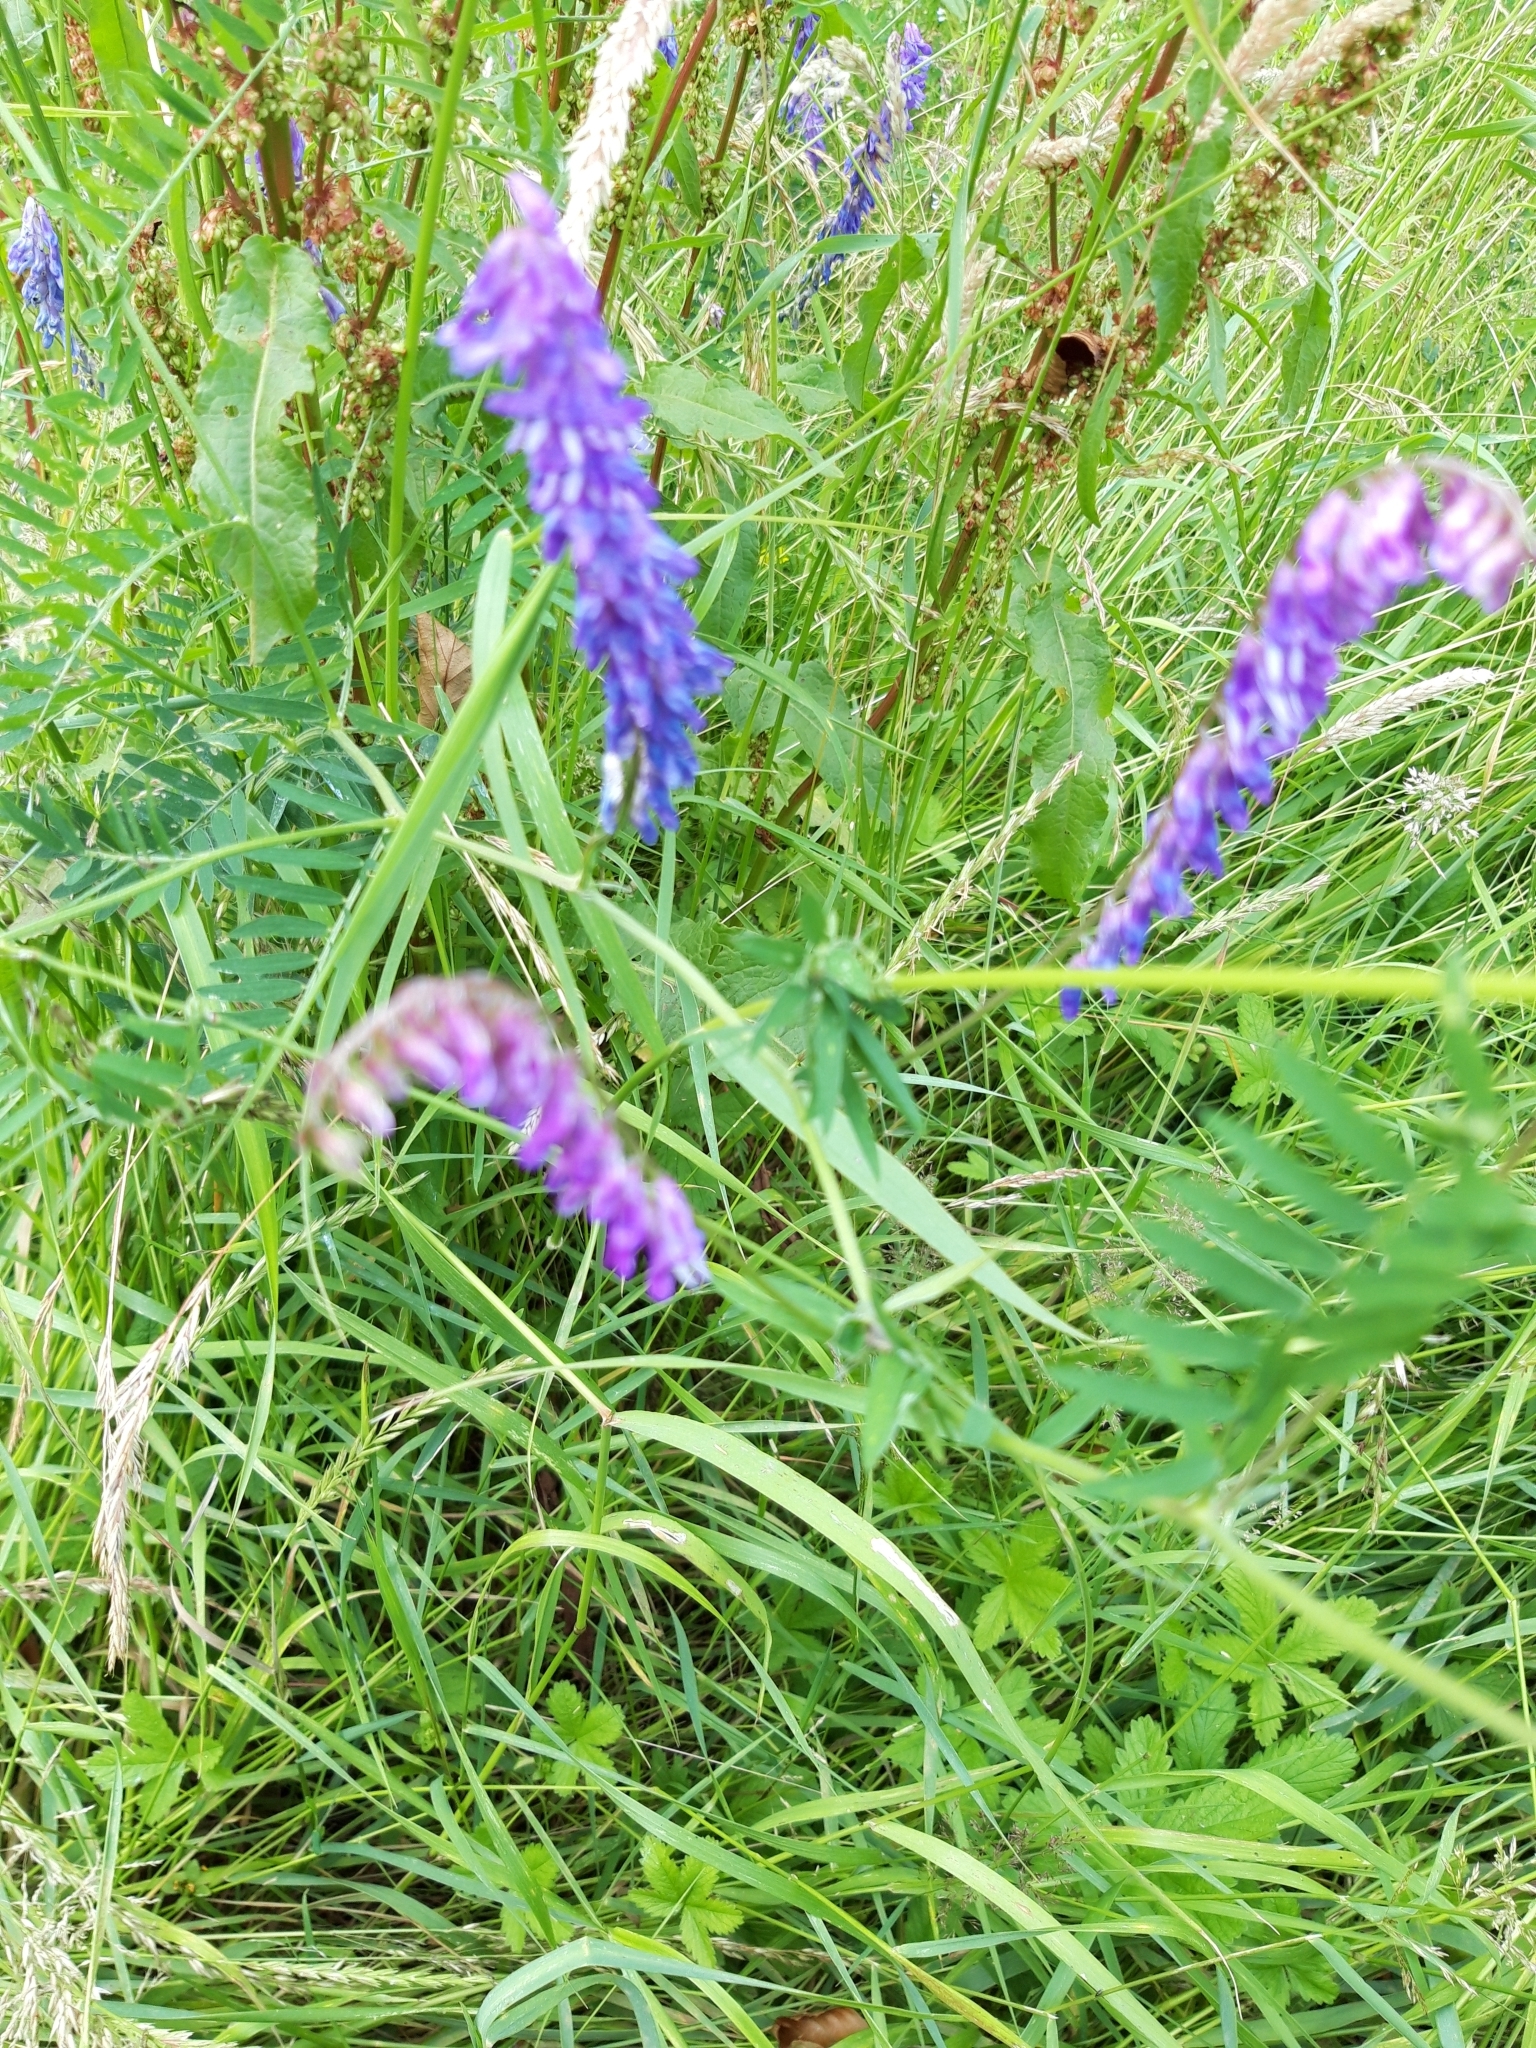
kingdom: Plantae
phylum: Tracheophyta
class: Magnoliopsida
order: Fabales
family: Fabaceae
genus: Vicia
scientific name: Vicia cracca
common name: Bird vetch
